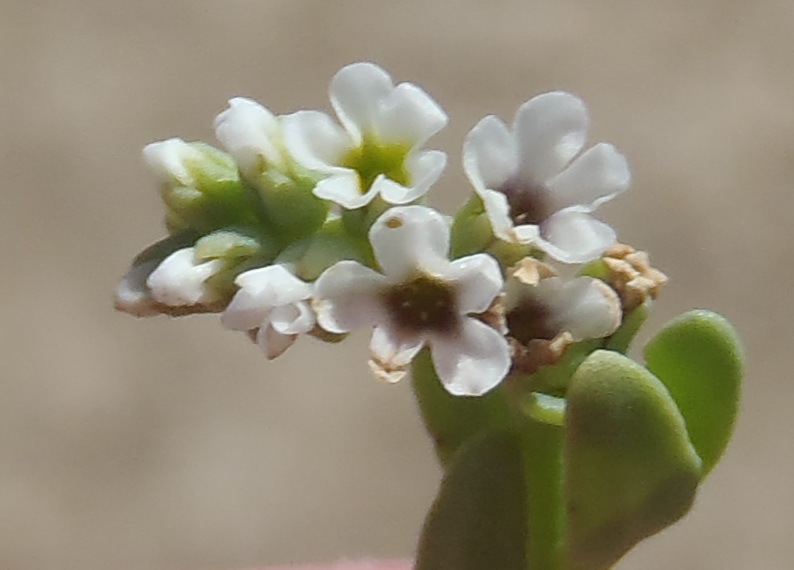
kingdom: Plantae
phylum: Tracheophyta
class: Magnoliopsida
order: Boraginales
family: Heliotropiaceae
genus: Heliotropium
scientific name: Heliotropium curassavicum
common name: Seaside heliotrope
